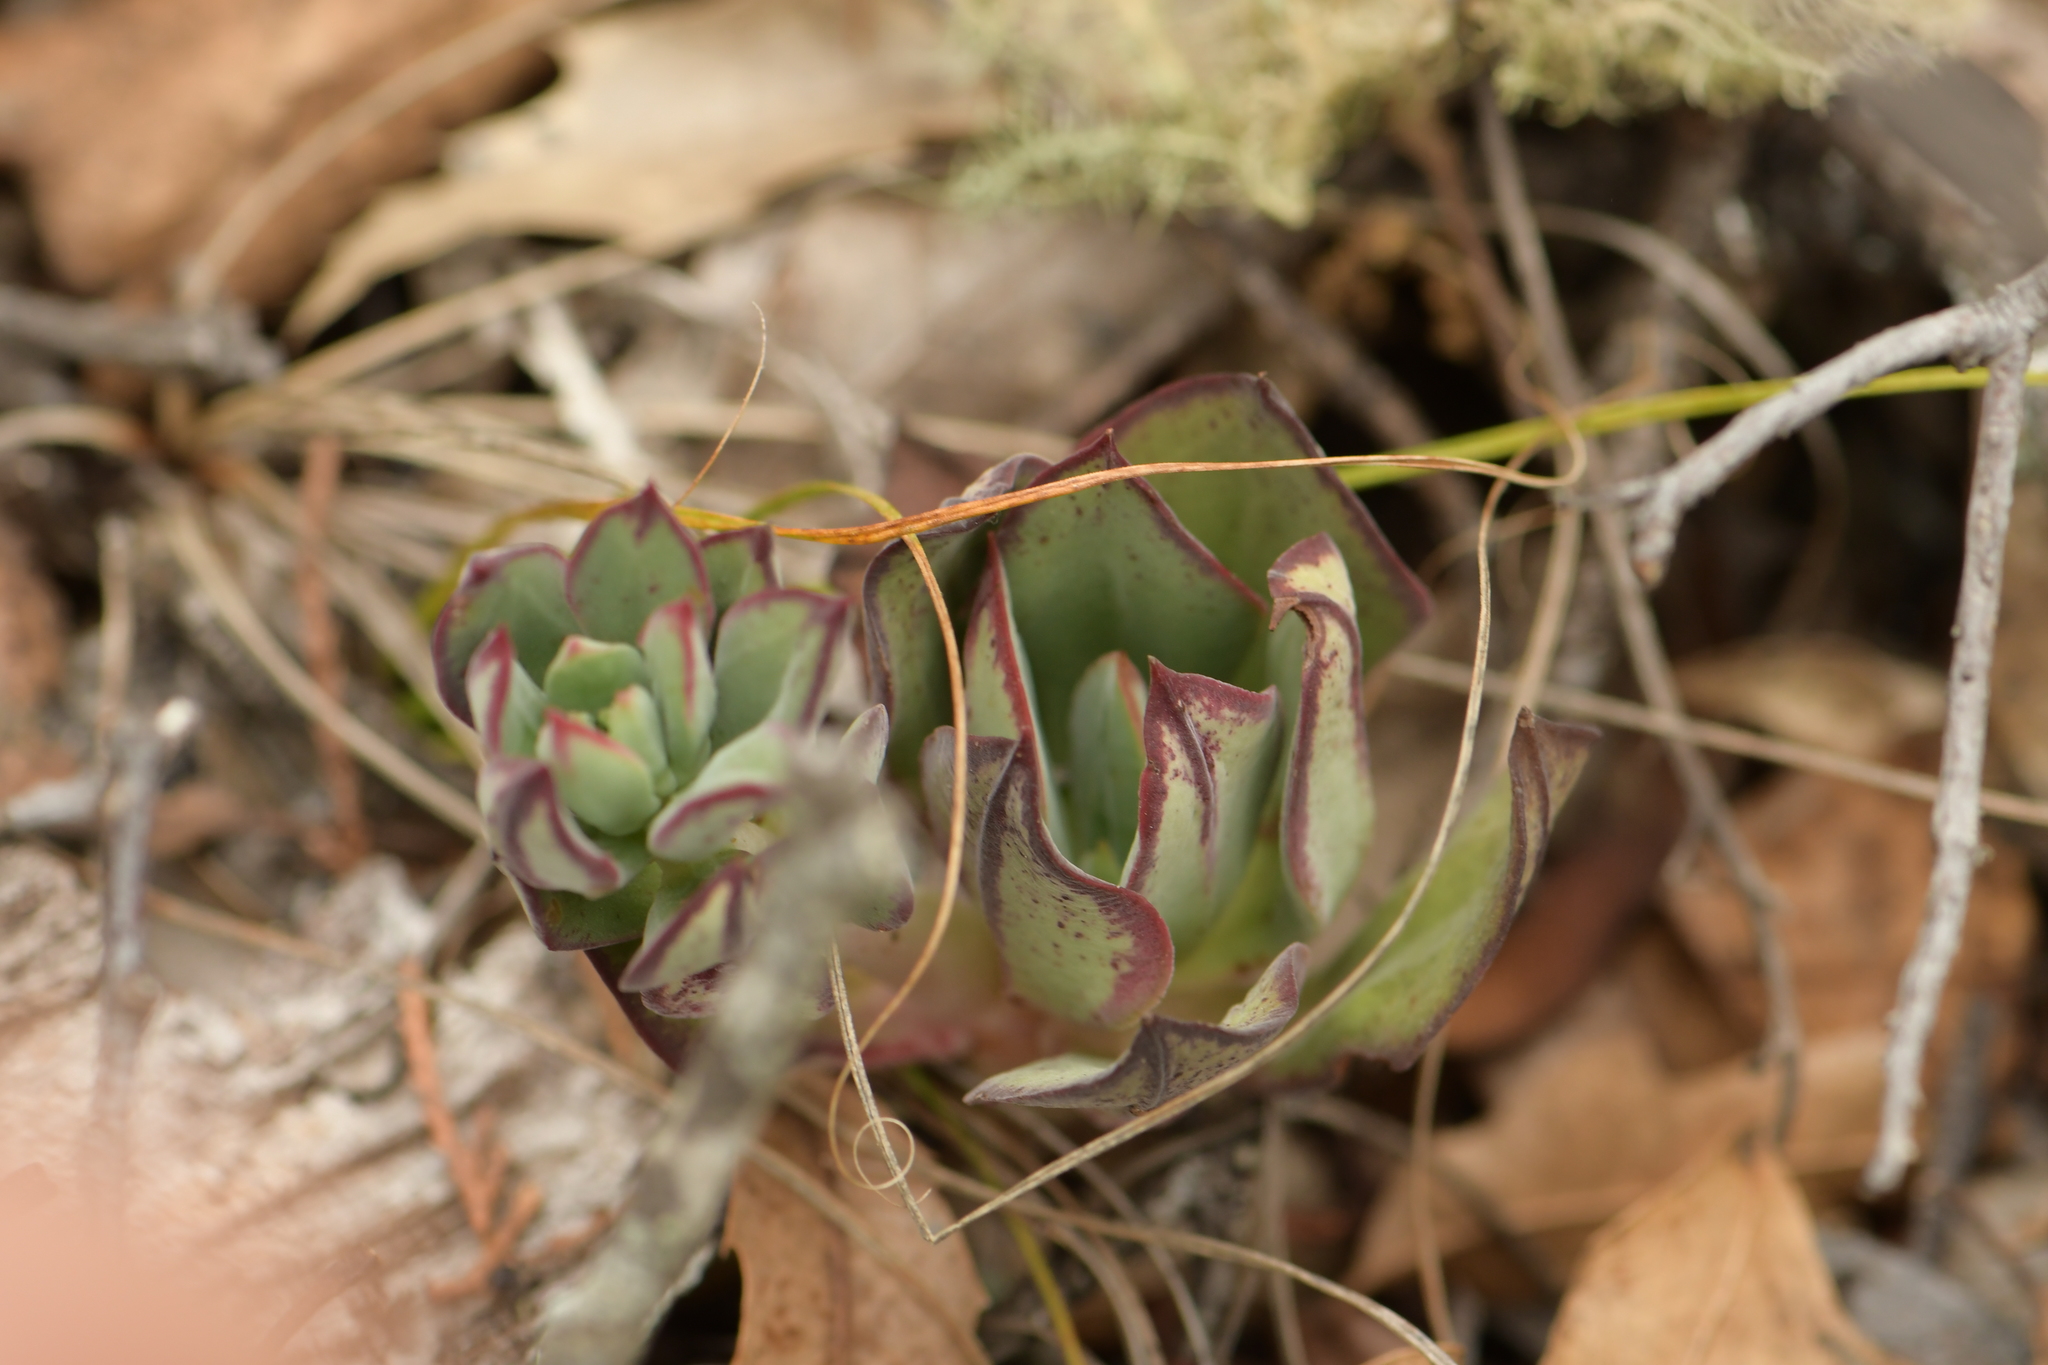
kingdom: Plantae
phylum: Tracheophyta
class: Magnoliopsida
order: Saxifragales
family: Crassulaceae
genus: Echeveria
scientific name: Echeveria nodulosa
